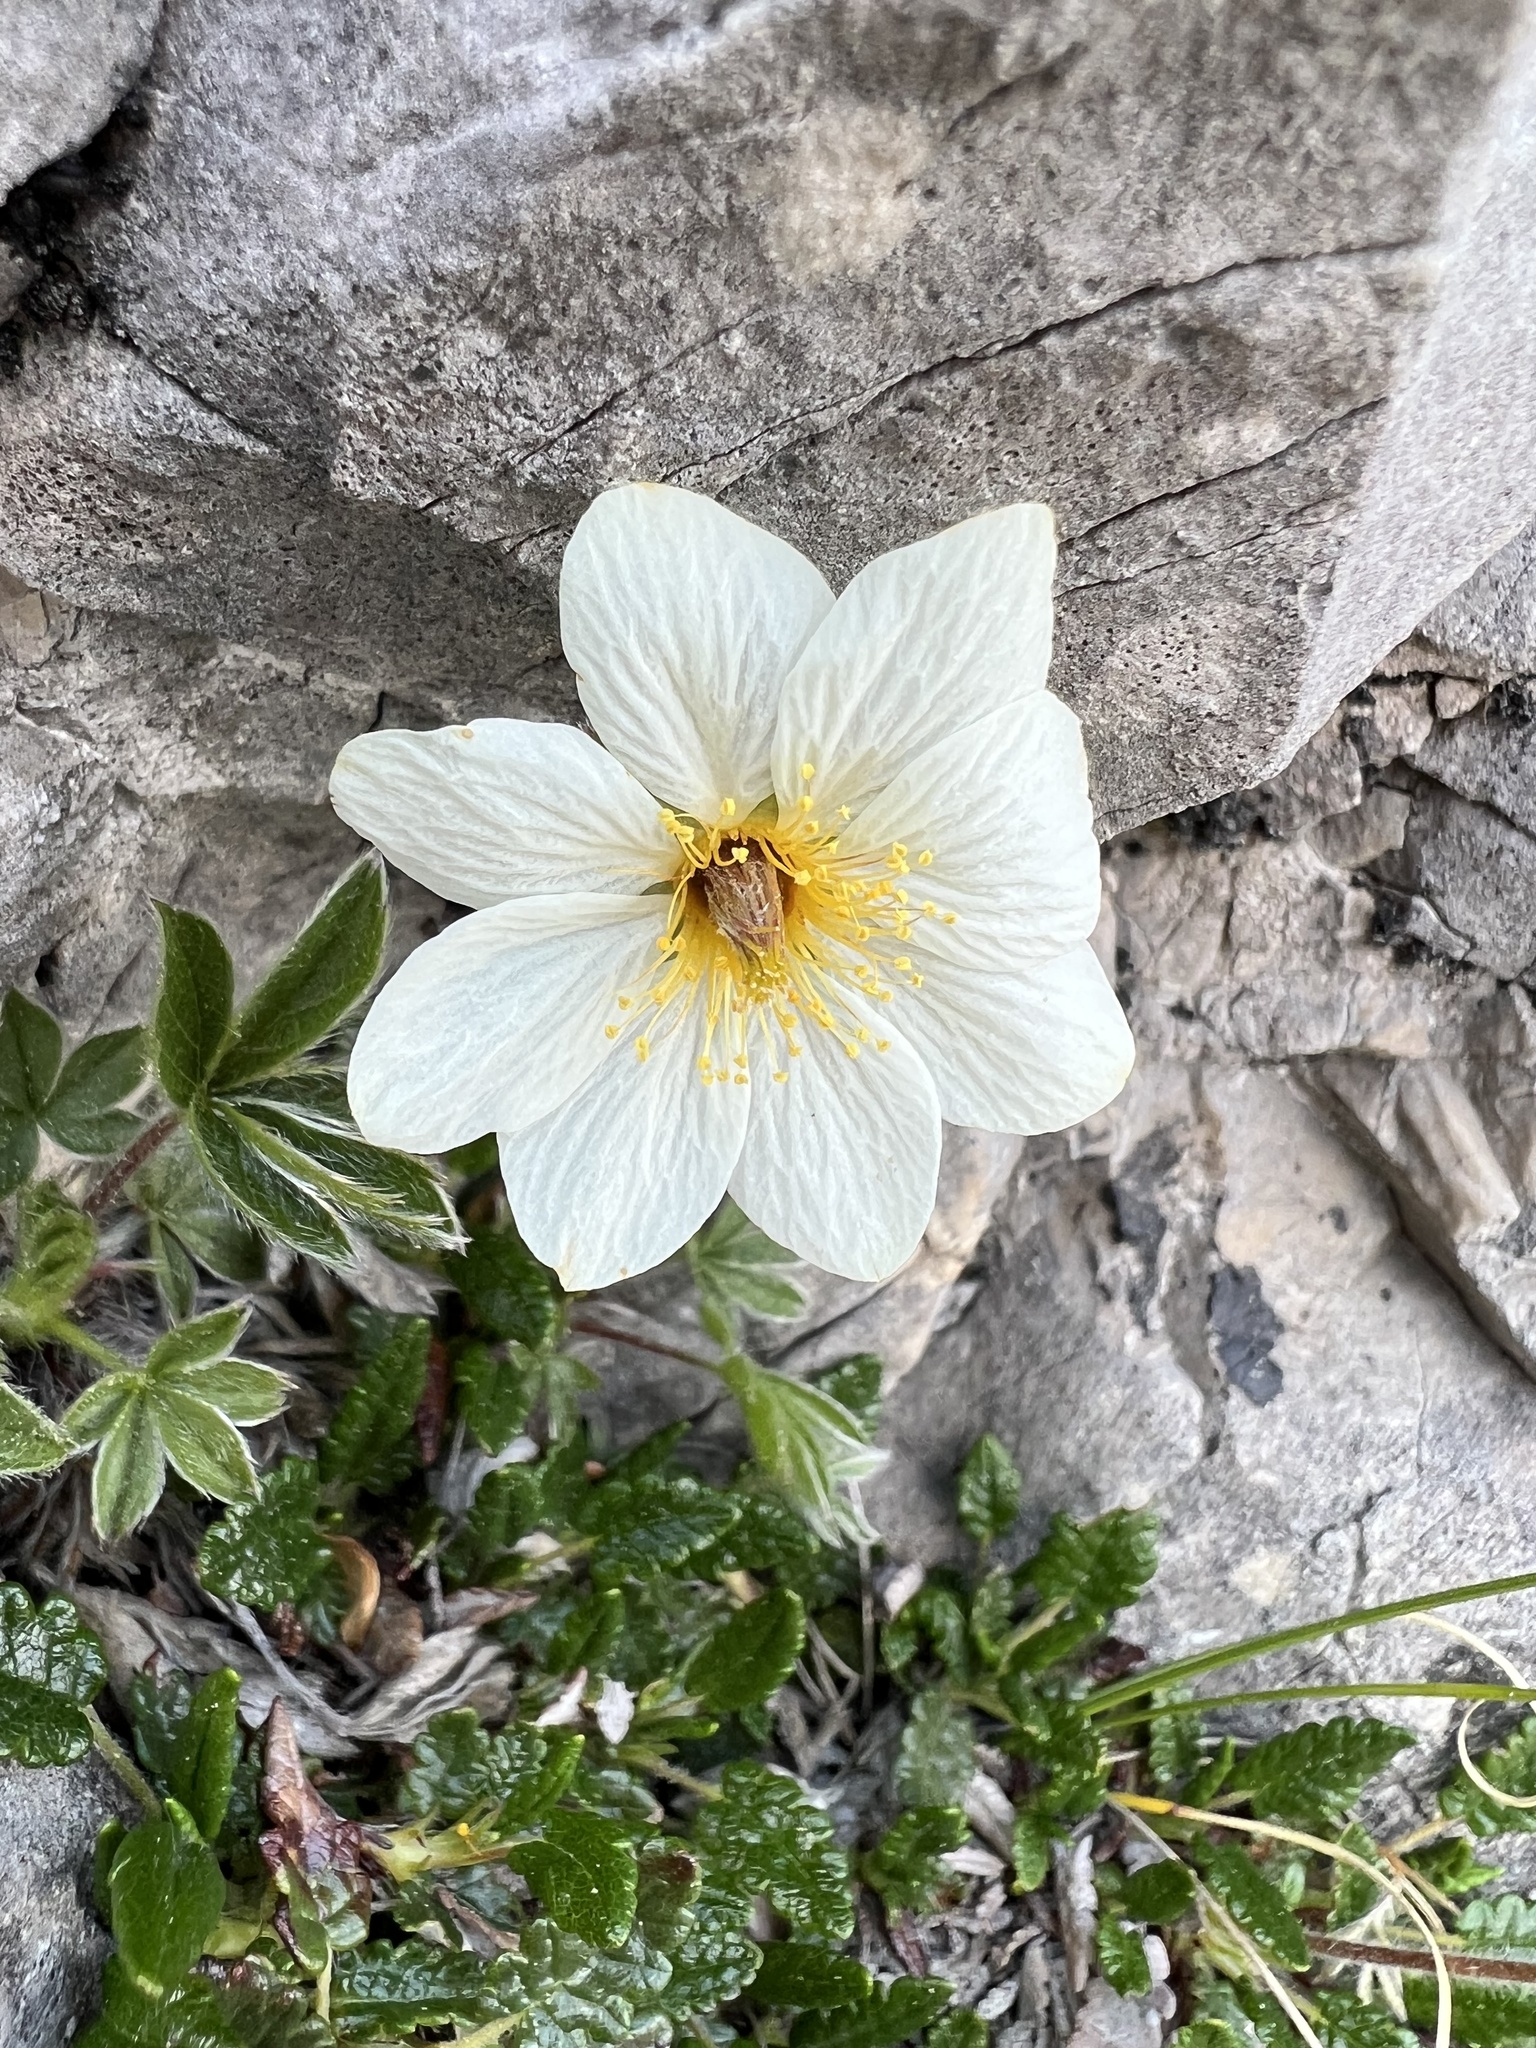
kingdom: Plantae
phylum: Tracheophyta
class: Magnoliopsida
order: Rosales
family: Rosaceae
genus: Dryas
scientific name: Dryas octopetala
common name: Eight-petal mountain-avens
